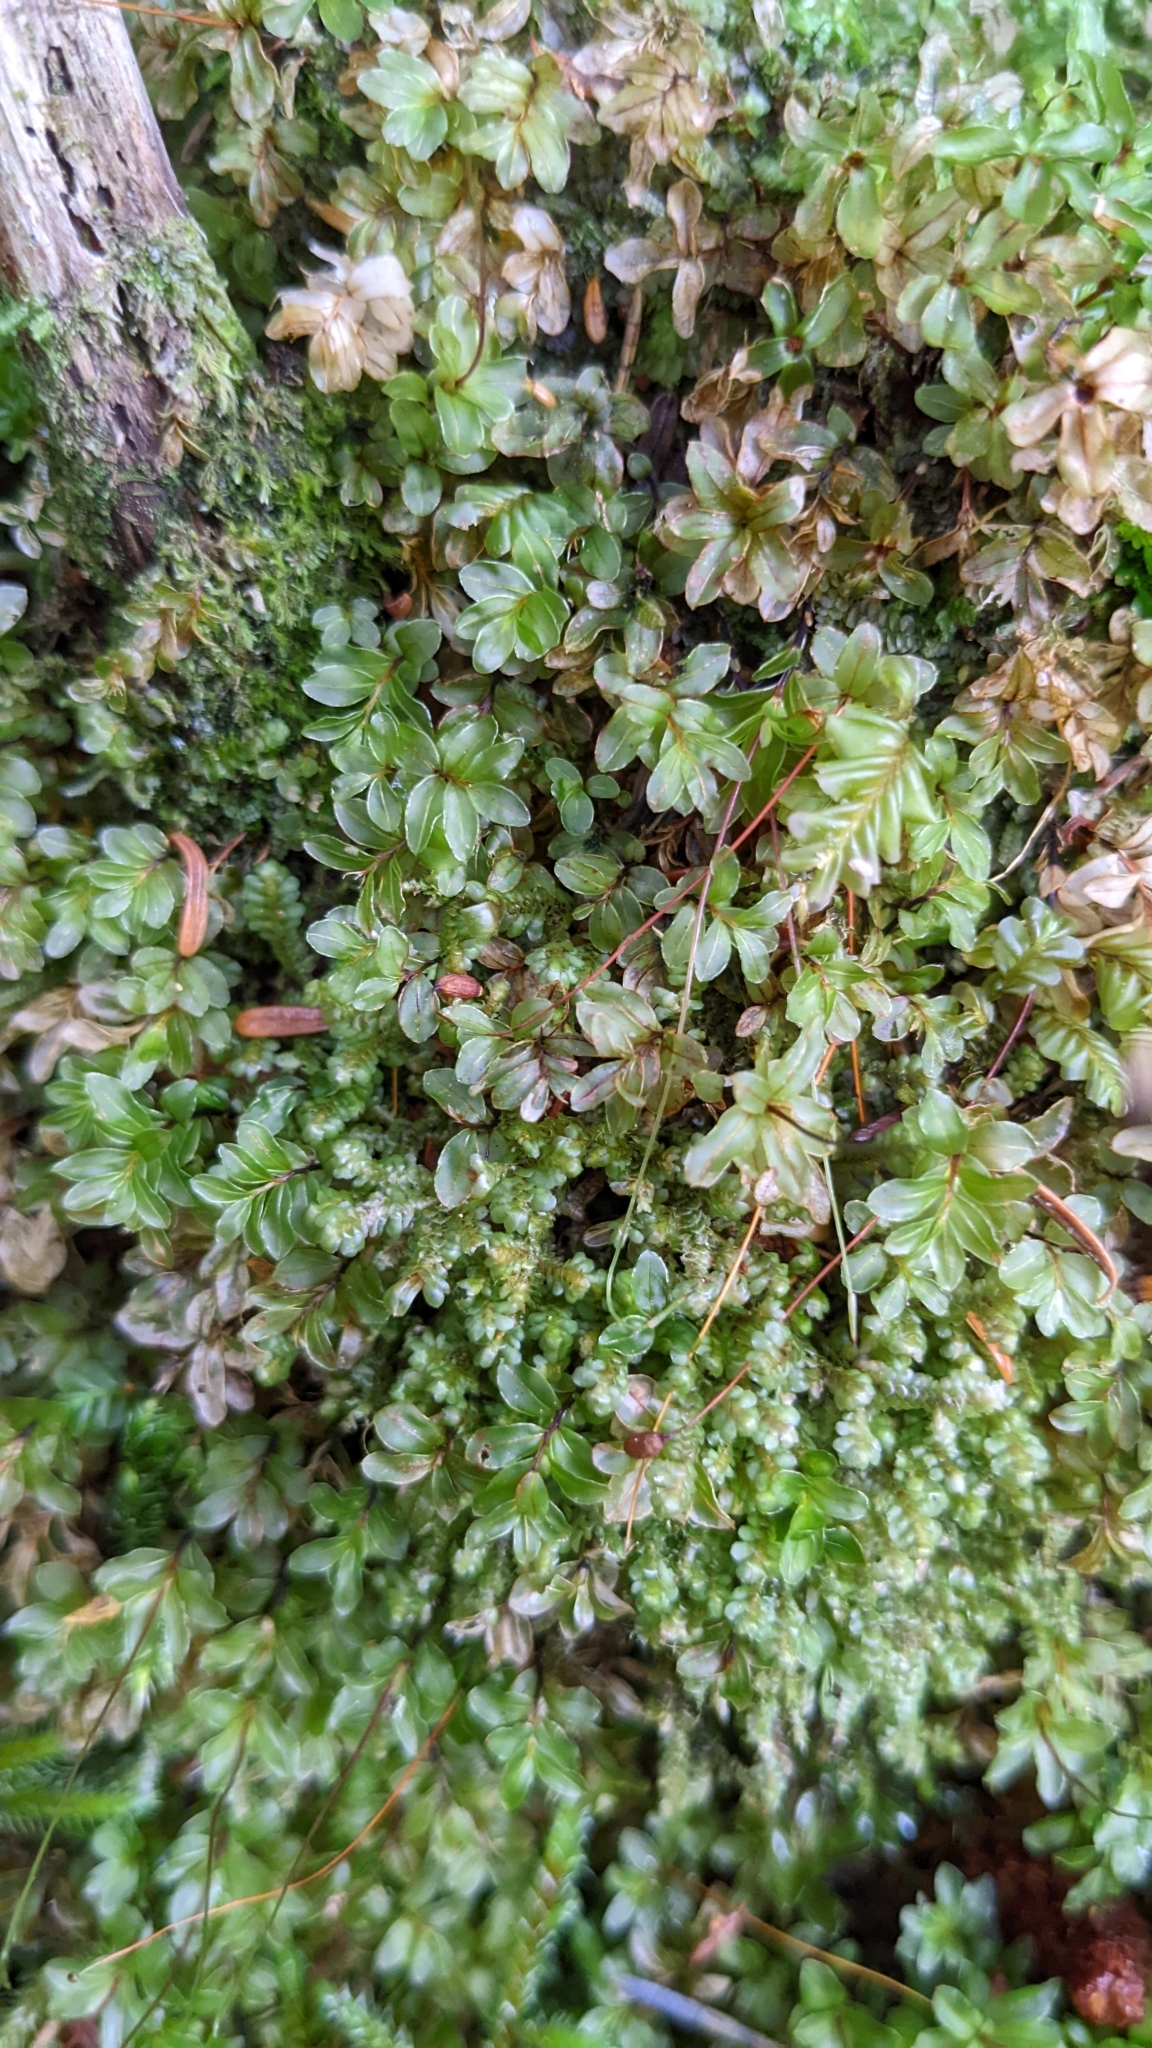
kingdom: Plantae
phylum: Bryophyta
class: Bryopsida
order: Bryales
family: Mniaceae
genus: Rhizomnium
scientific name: Rhizomnium glabrescens
